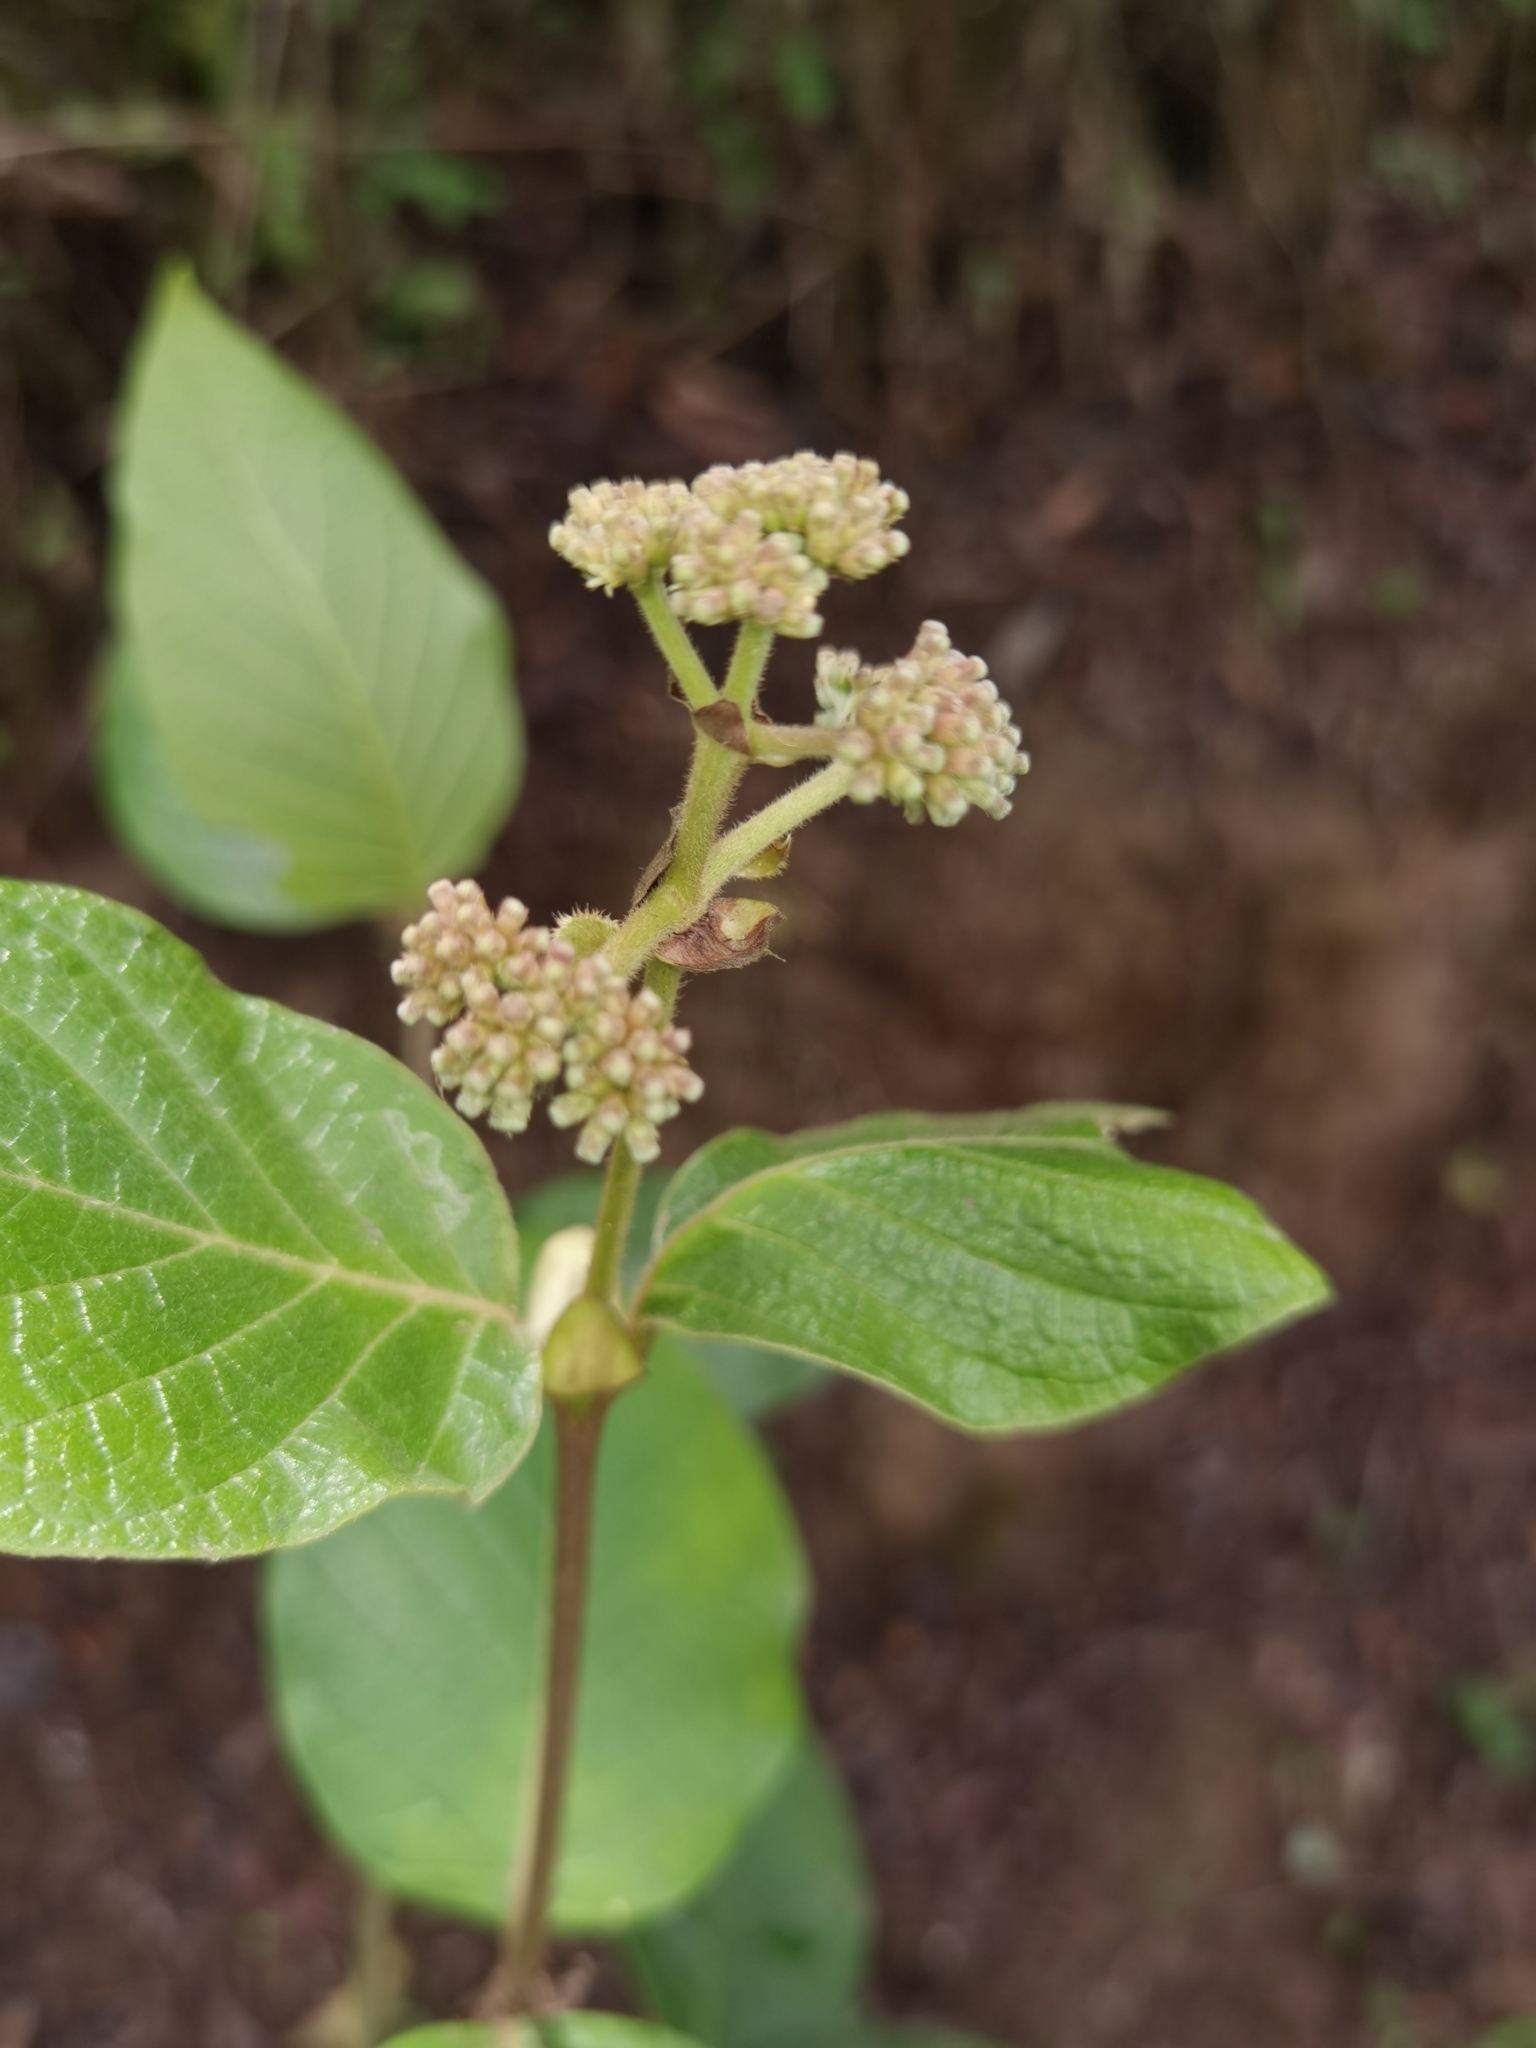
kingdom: Plantae
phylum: Tracheophyta
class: Magnoliopsida
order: Gentianales
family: Rubiaceae
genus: Rogiera
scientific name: Rogiera amoena
